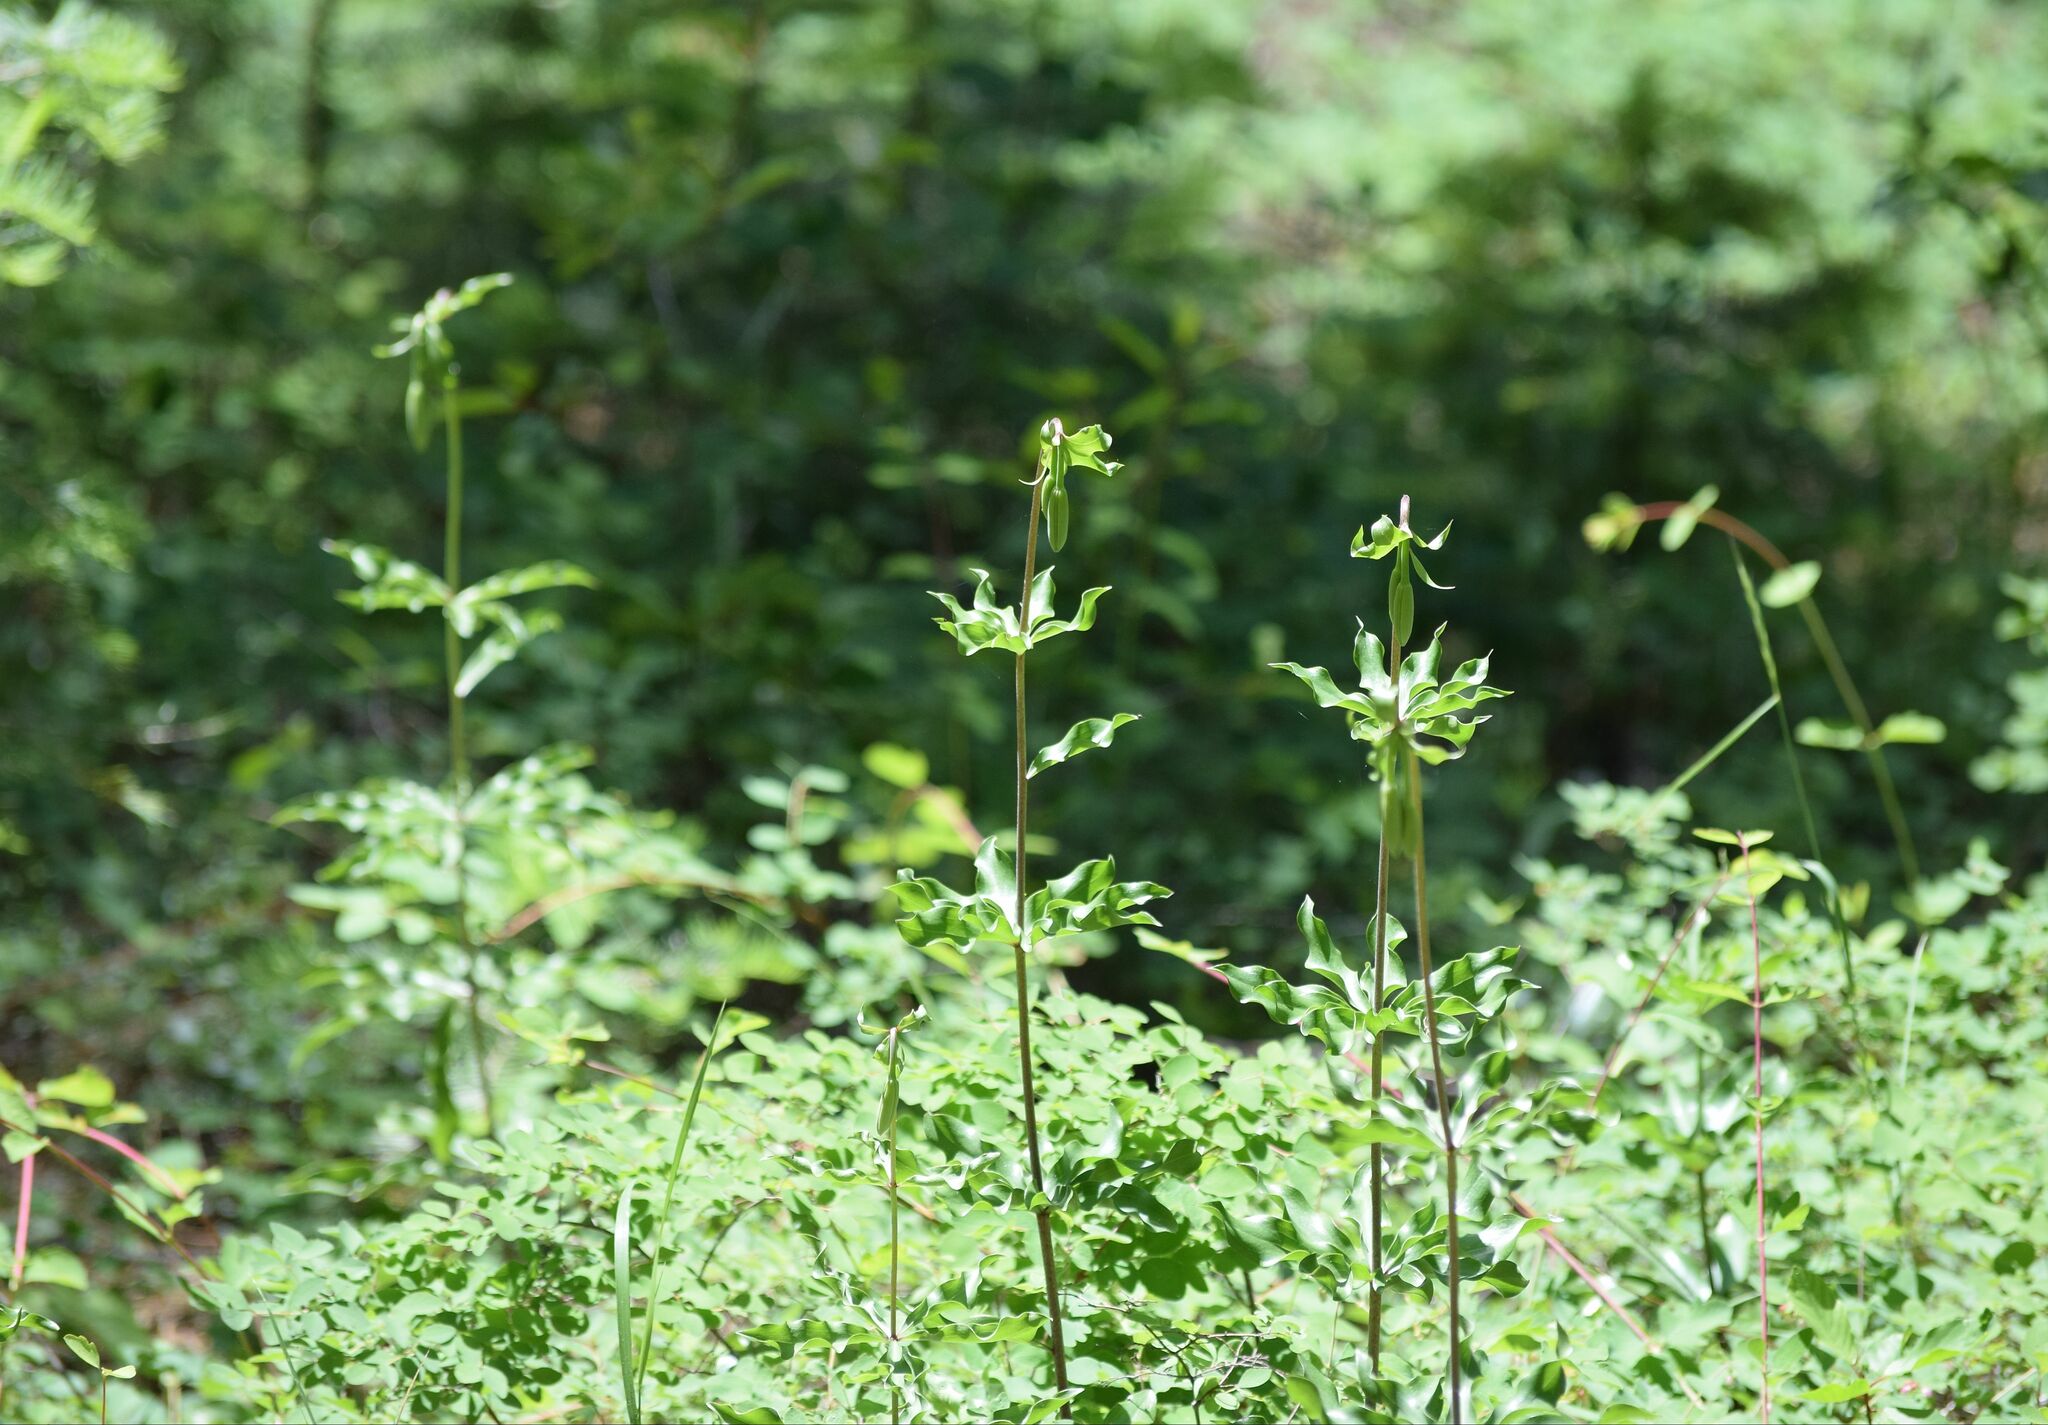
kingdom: Plantae
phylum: Tracheophyta
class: Liliopsida
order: Liliales
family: Liliaceae
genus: Lilium
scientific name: Lilium washingtonianum
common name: Washington lily
